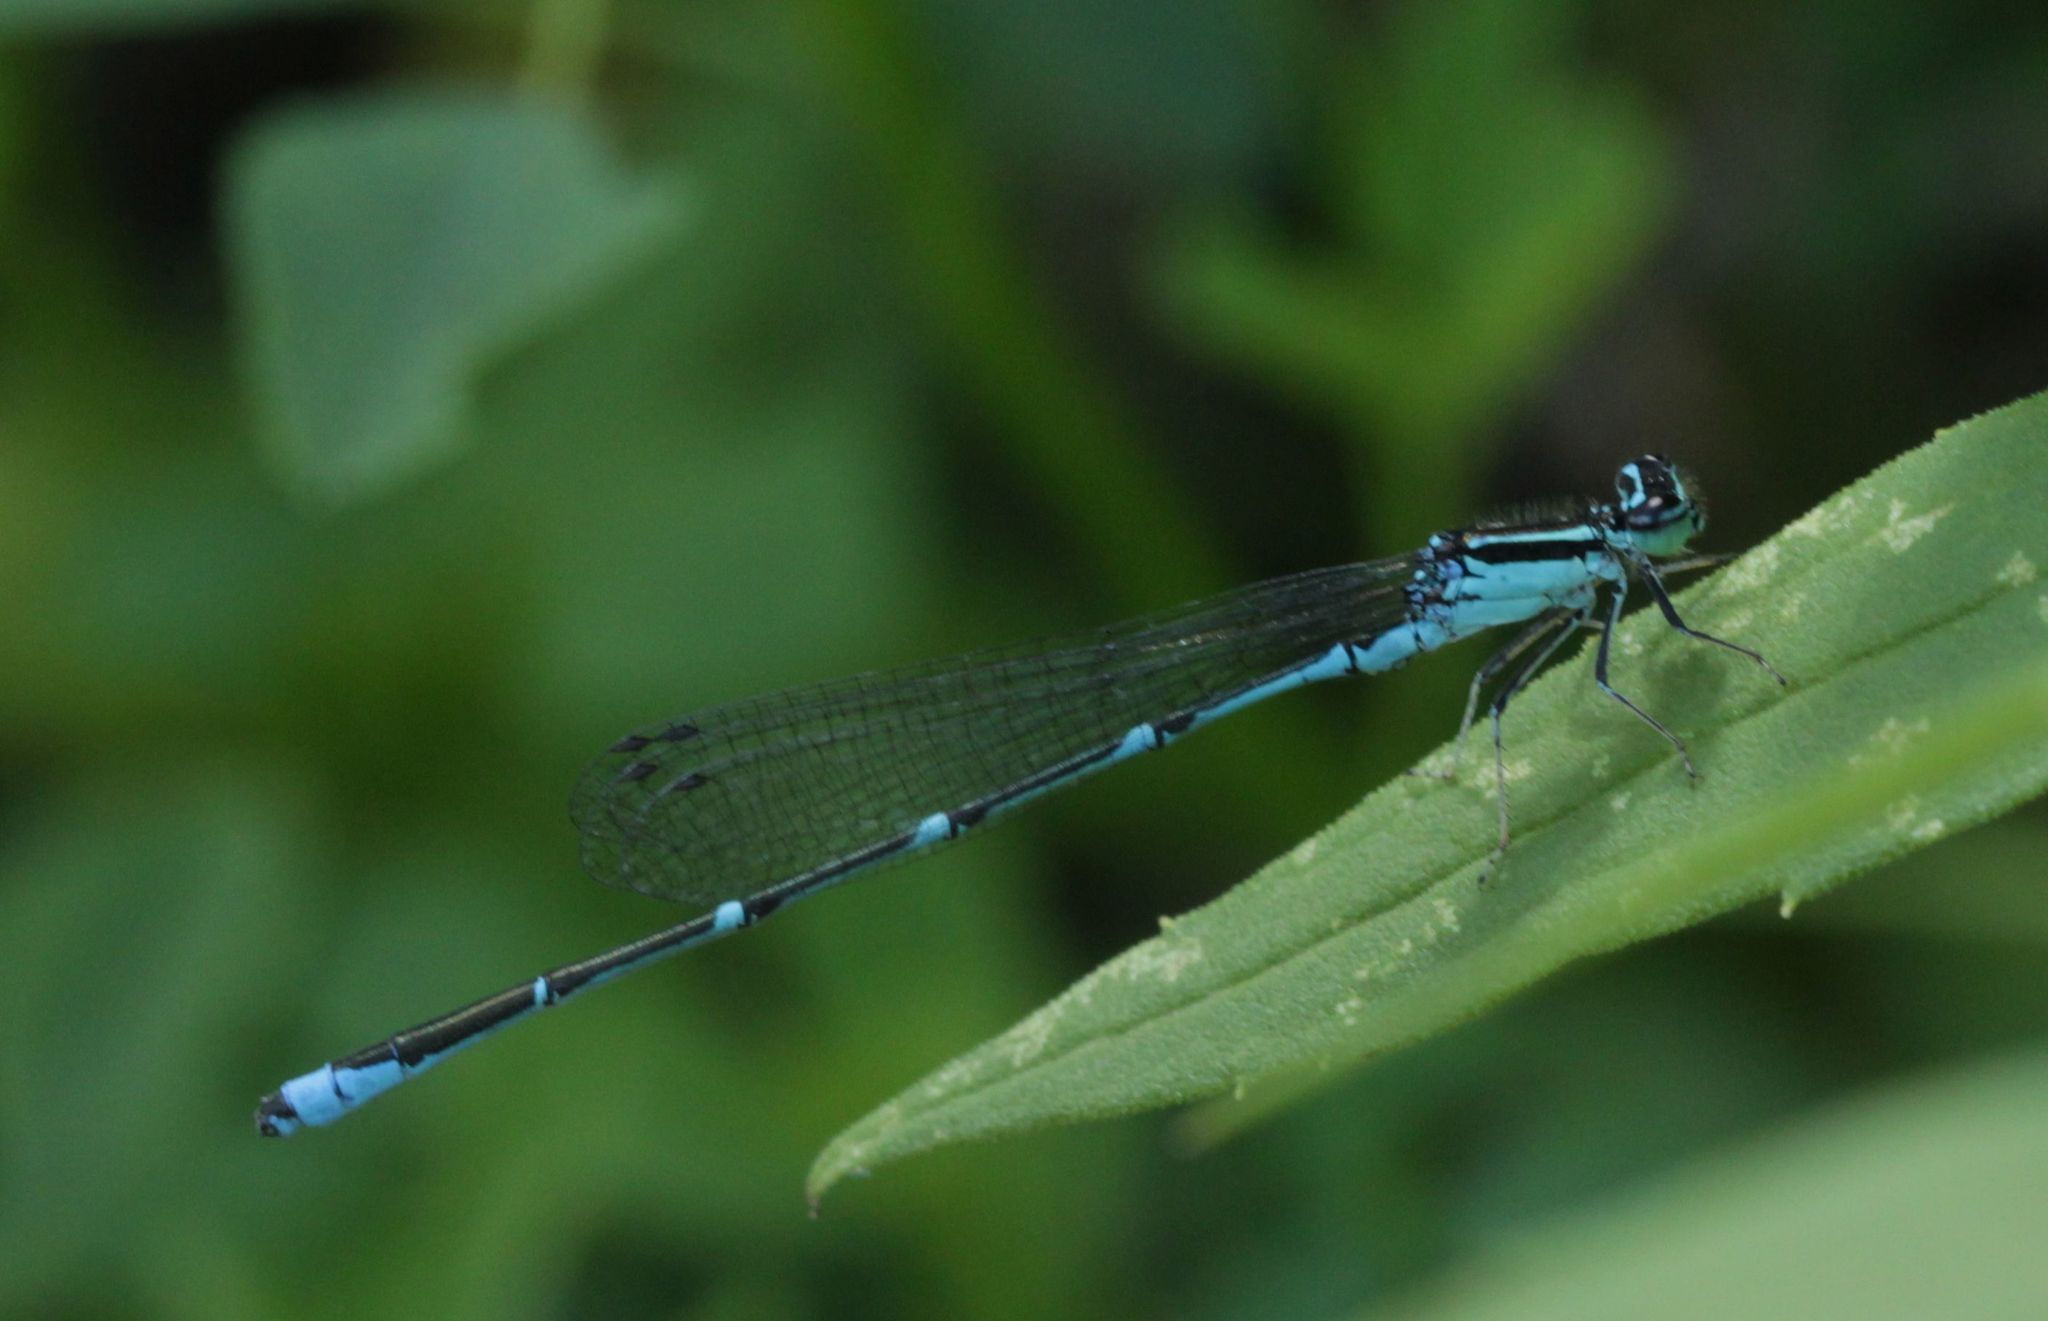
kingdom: Animalia
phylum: Arthropoda
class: Insecta
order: Odonata
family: Coenagrionidae
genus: Enallagma
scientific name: Enallagma exsulans
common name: Stream bluet
